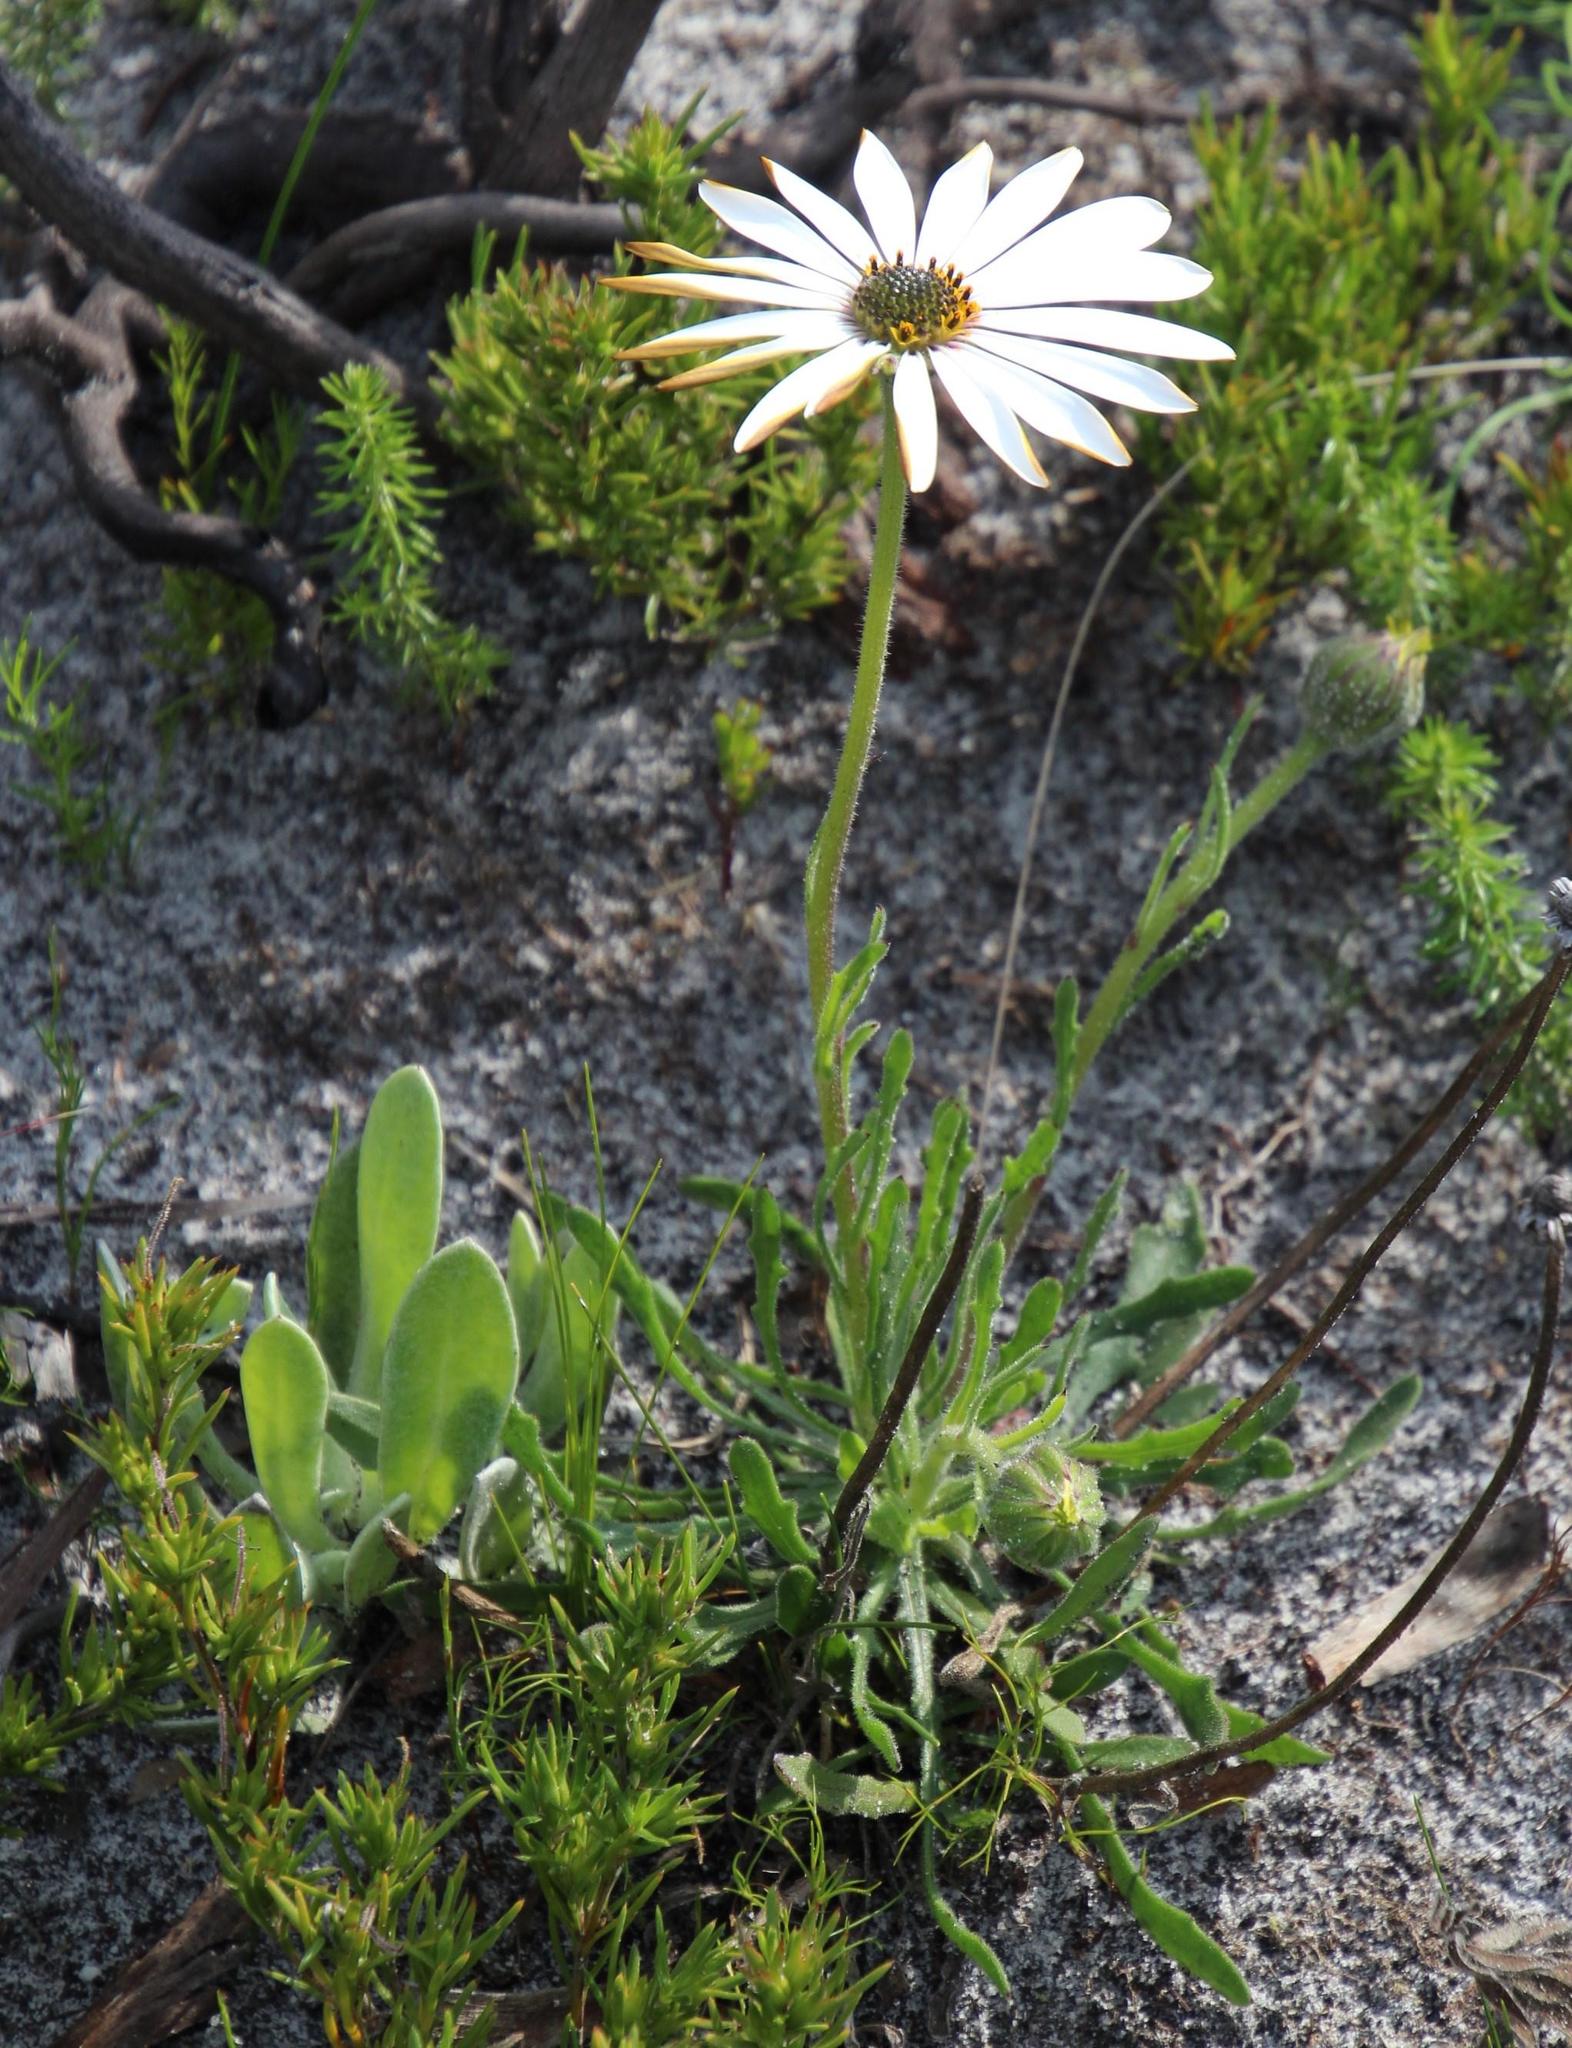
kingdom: Plantae
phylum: Tracheophyta
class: Magnoliopsida
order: Asterales
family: Asteraceae
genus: Dimorphotheca
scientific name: Dimorphotheca nudicaulis
